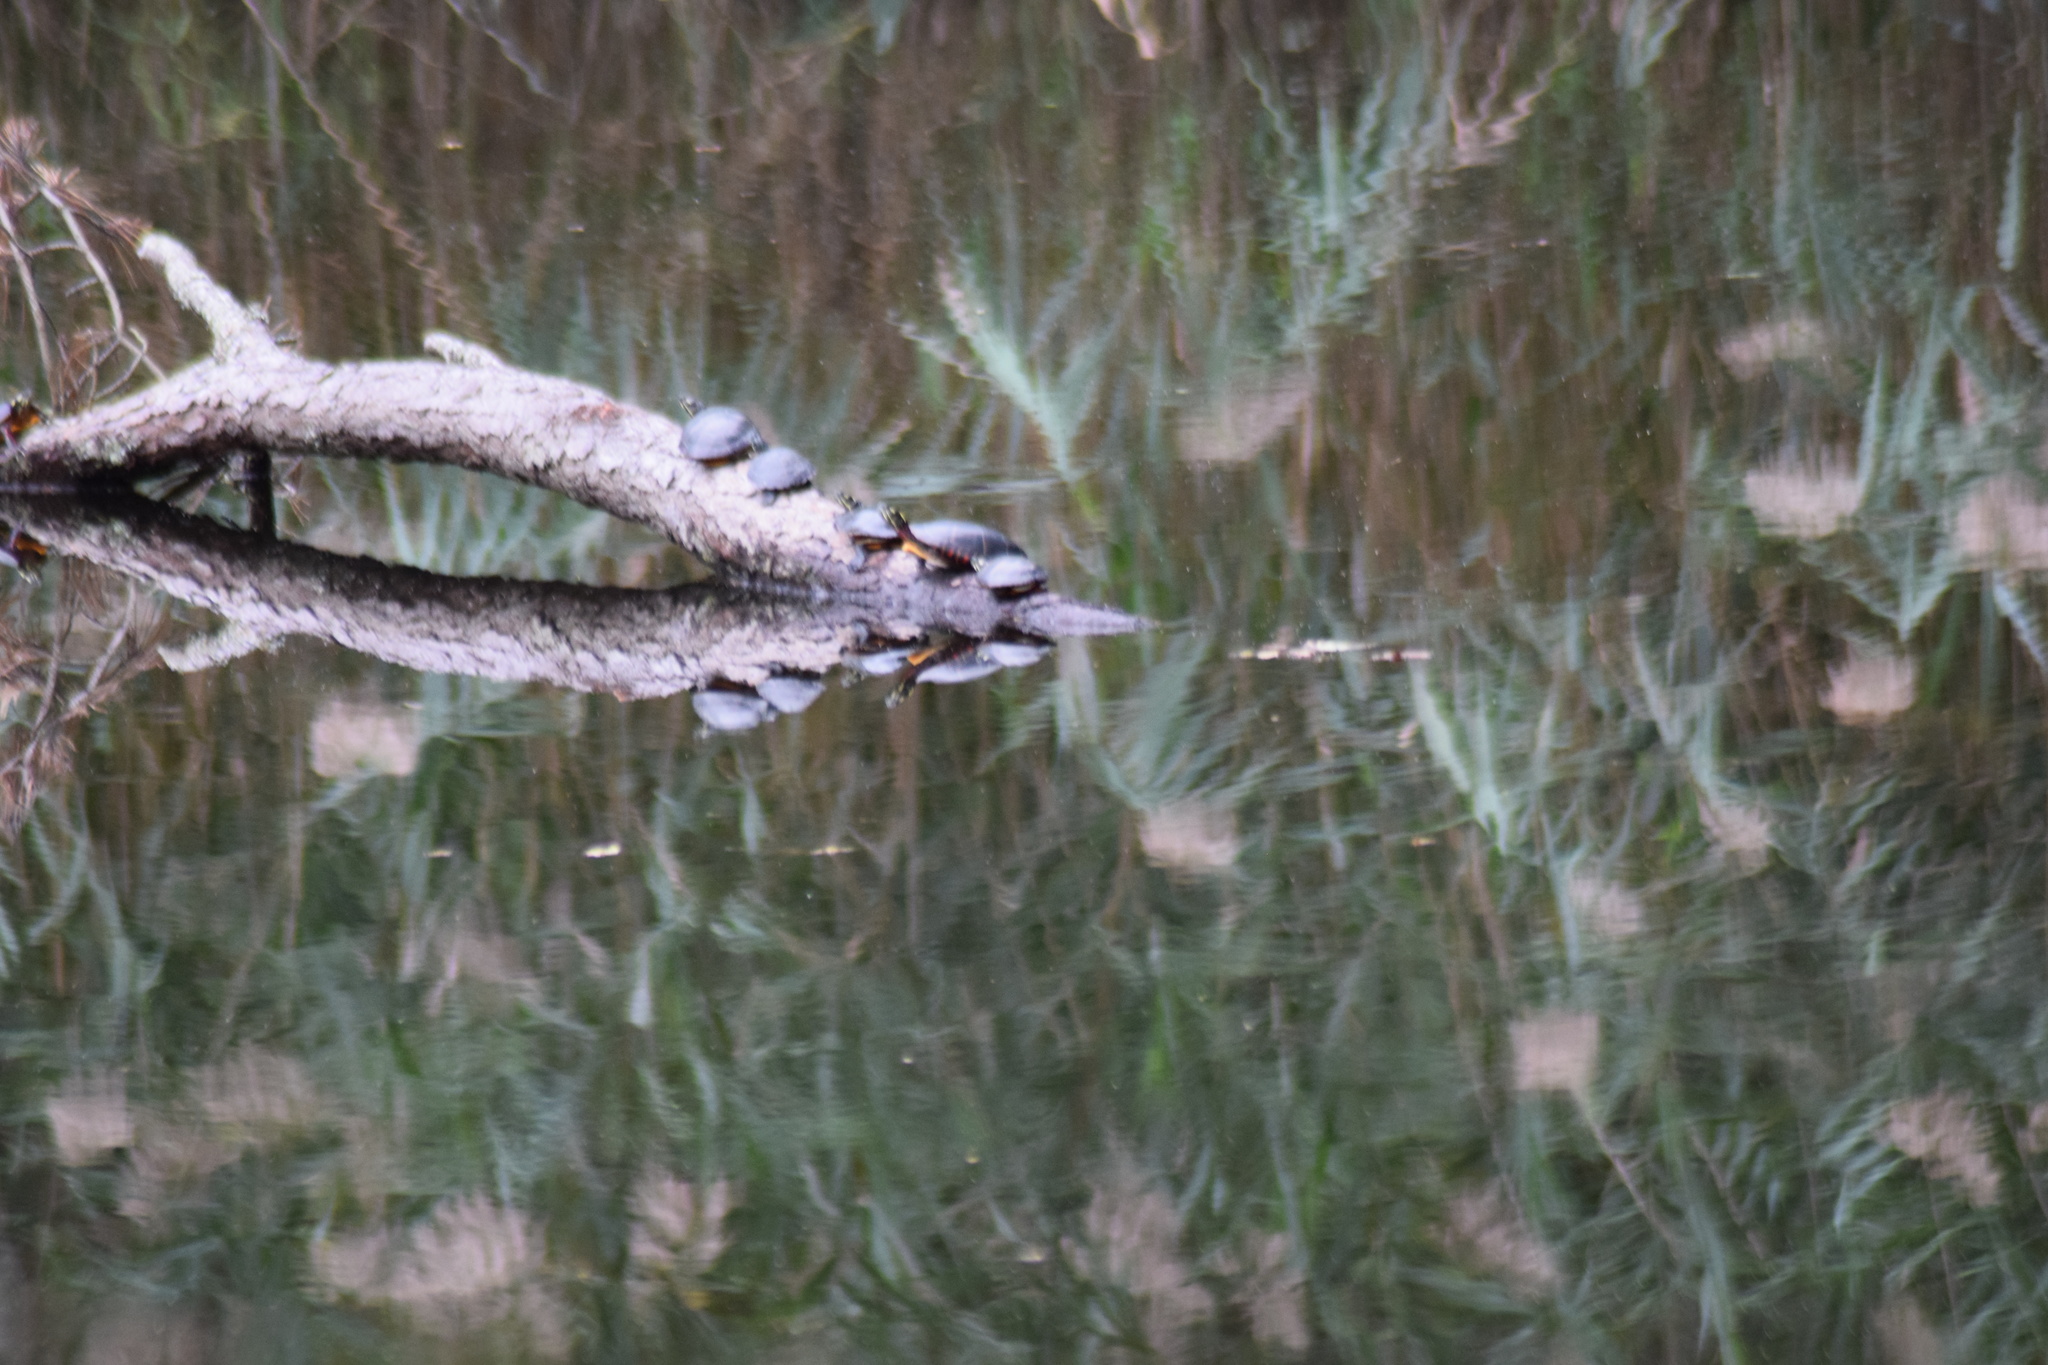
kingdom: Animalia
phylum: Chordata
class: Testudines
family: Emydidae
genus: Chrysemys
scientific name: Chrysemys picta
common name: Painted turtle
